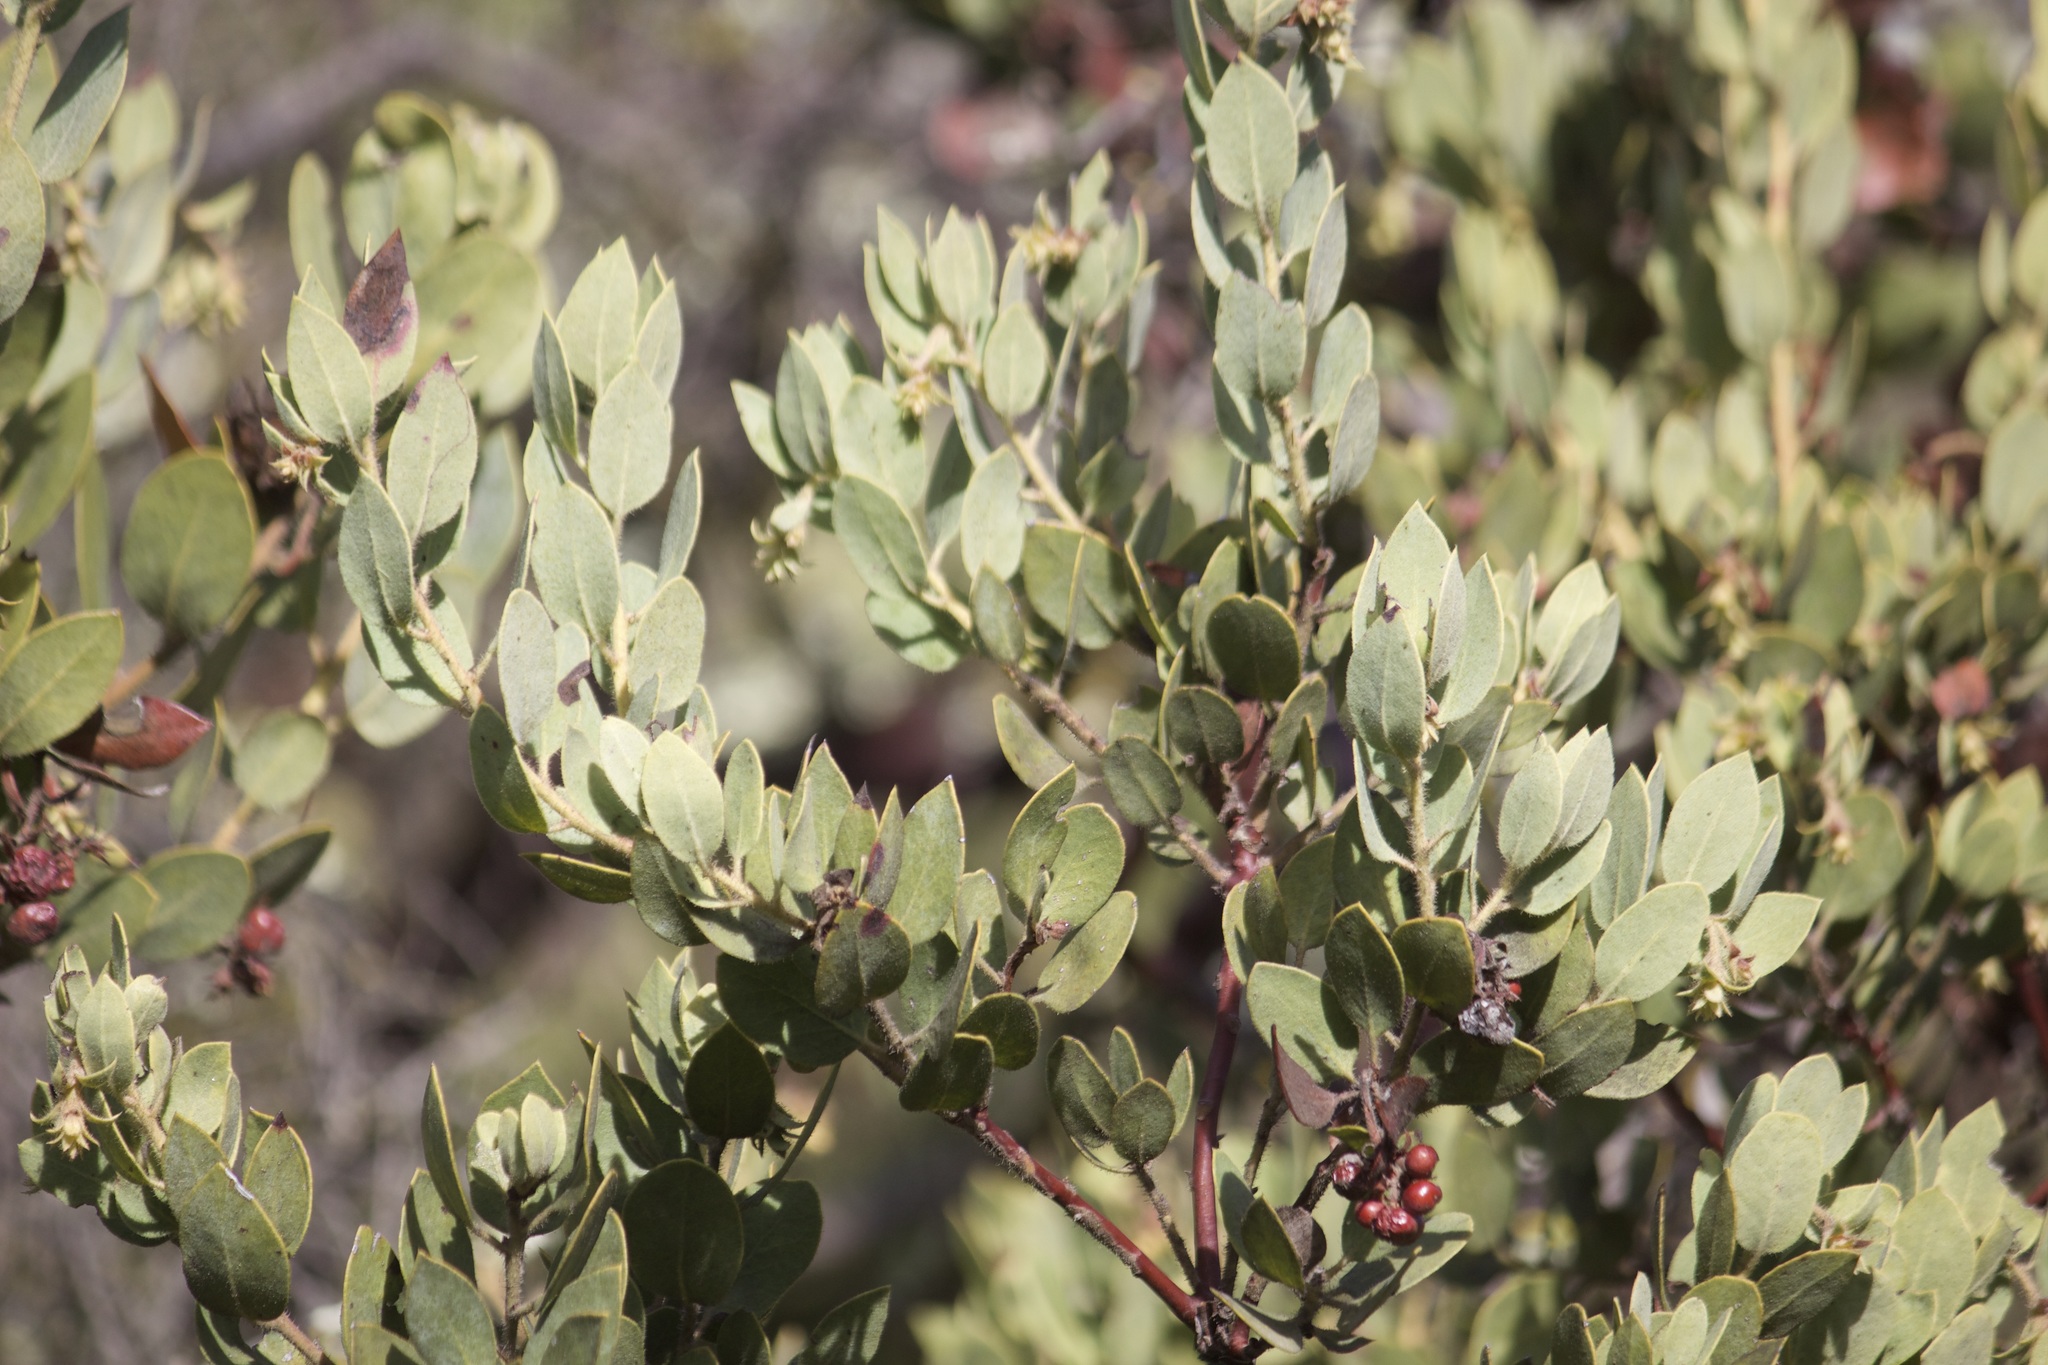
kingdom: Plantae
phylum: Tracheophyta
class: Magnoliopsida
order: Ericales
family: Ericaceae
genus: Arctostaphylos
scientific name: Arctostaphylos glandulosa
